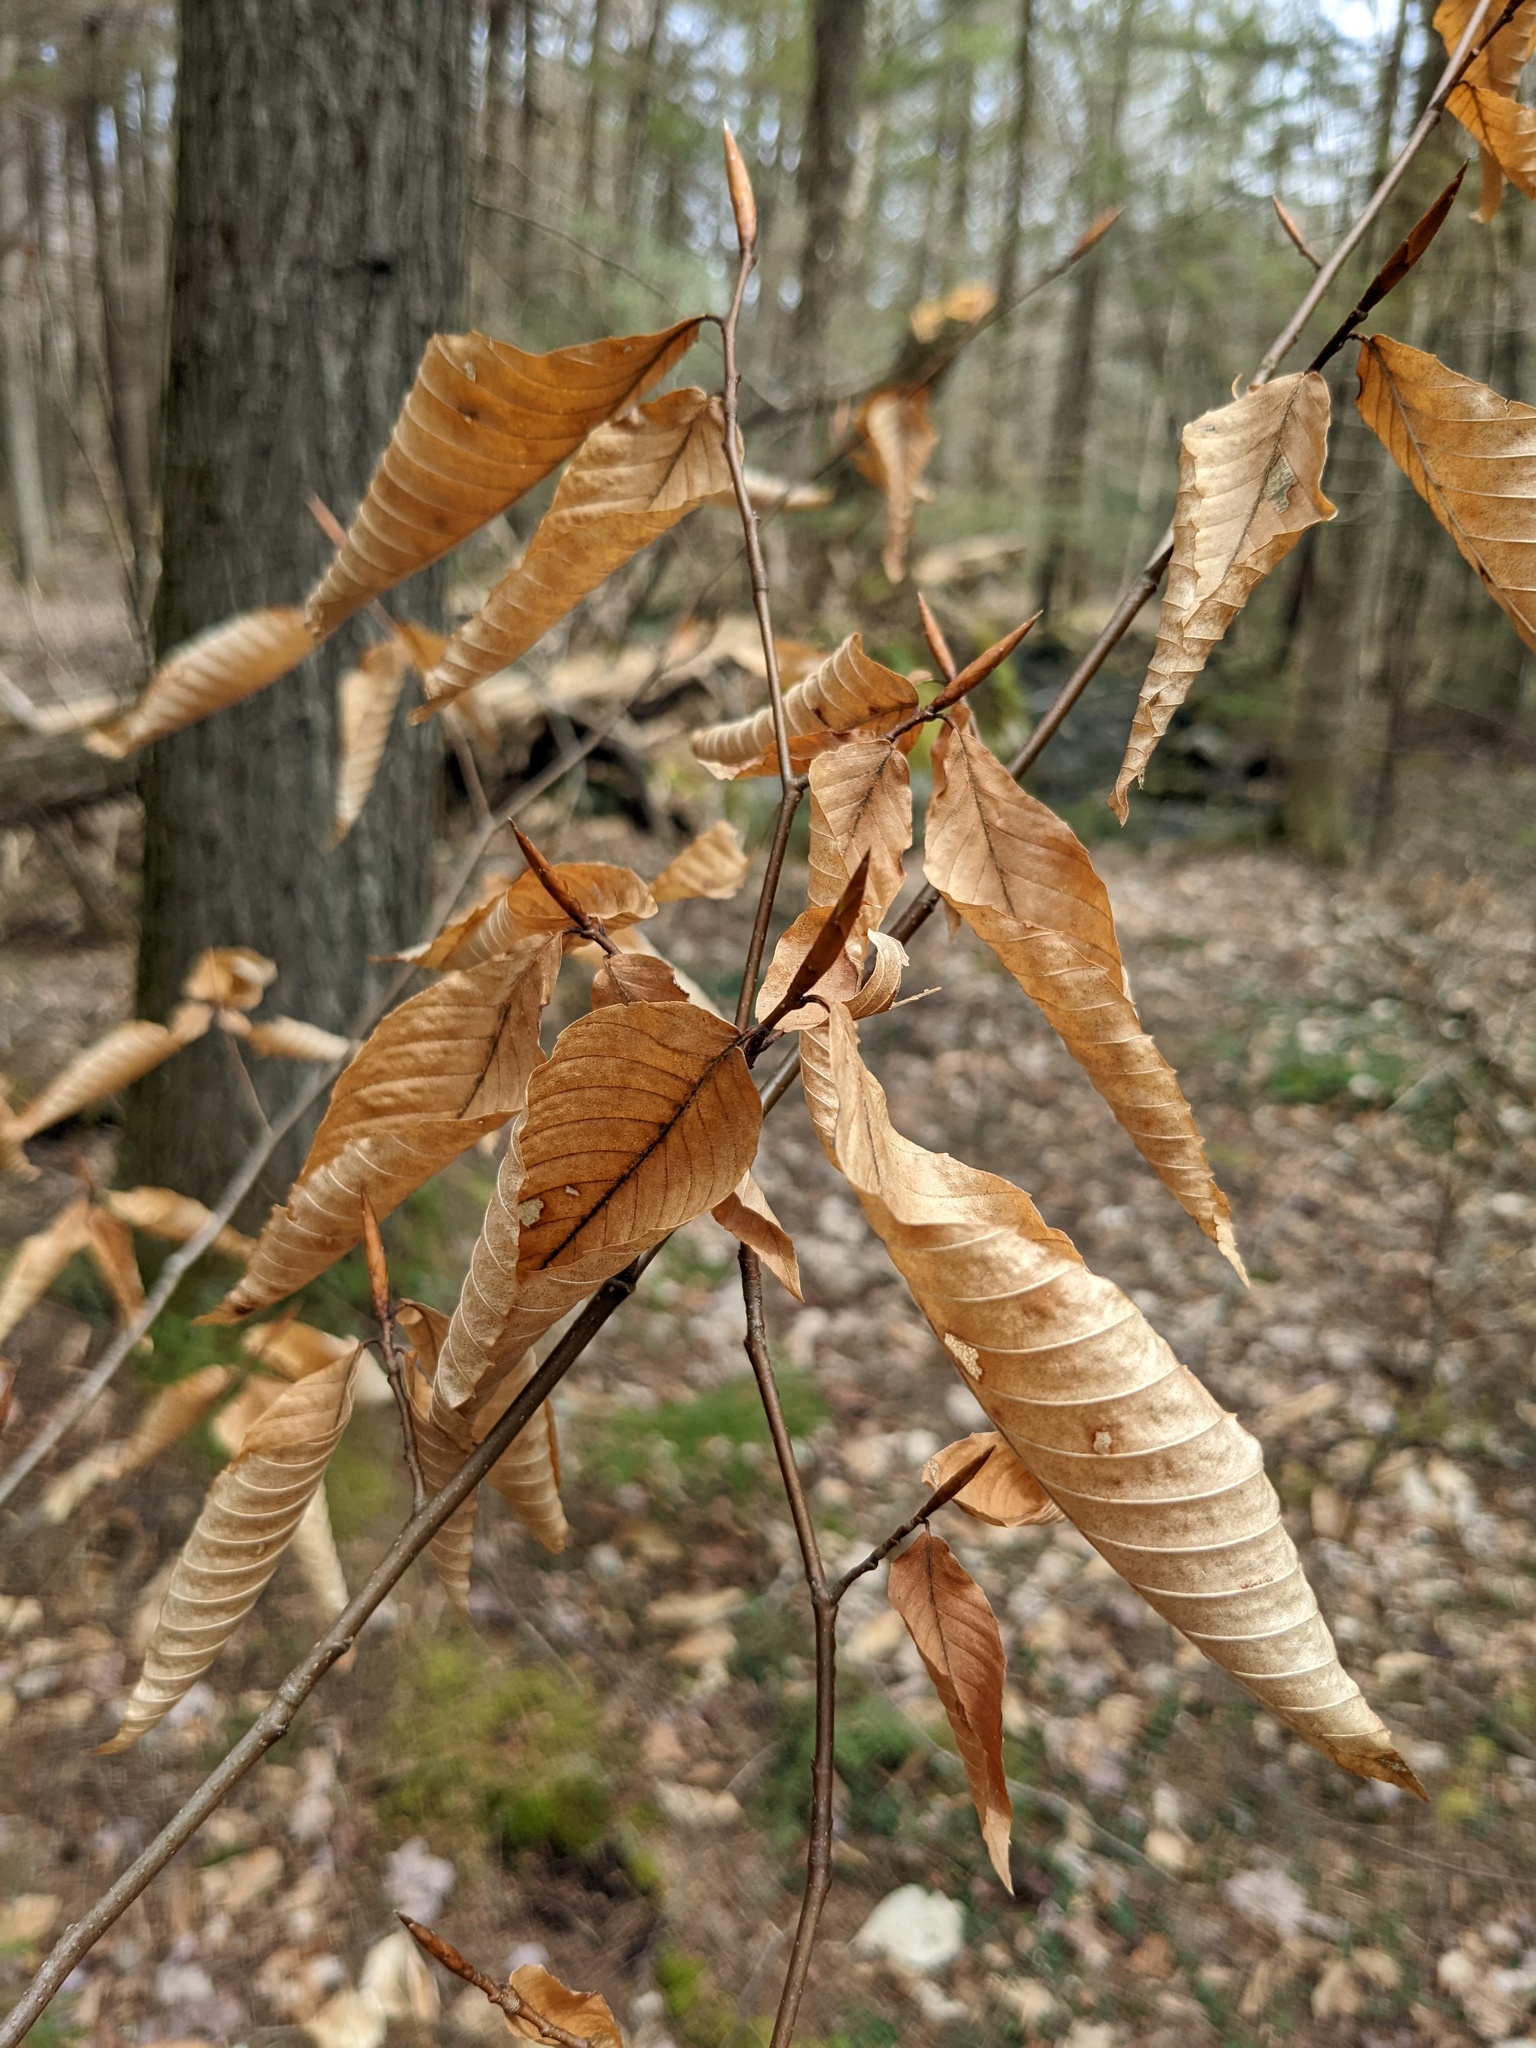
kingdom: Plantae
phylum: Tracheophyta
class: Magnoliopsida
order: Fagales
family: Fagaceae
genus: Fagus
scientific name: Fagus grandifolia
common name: American beech
